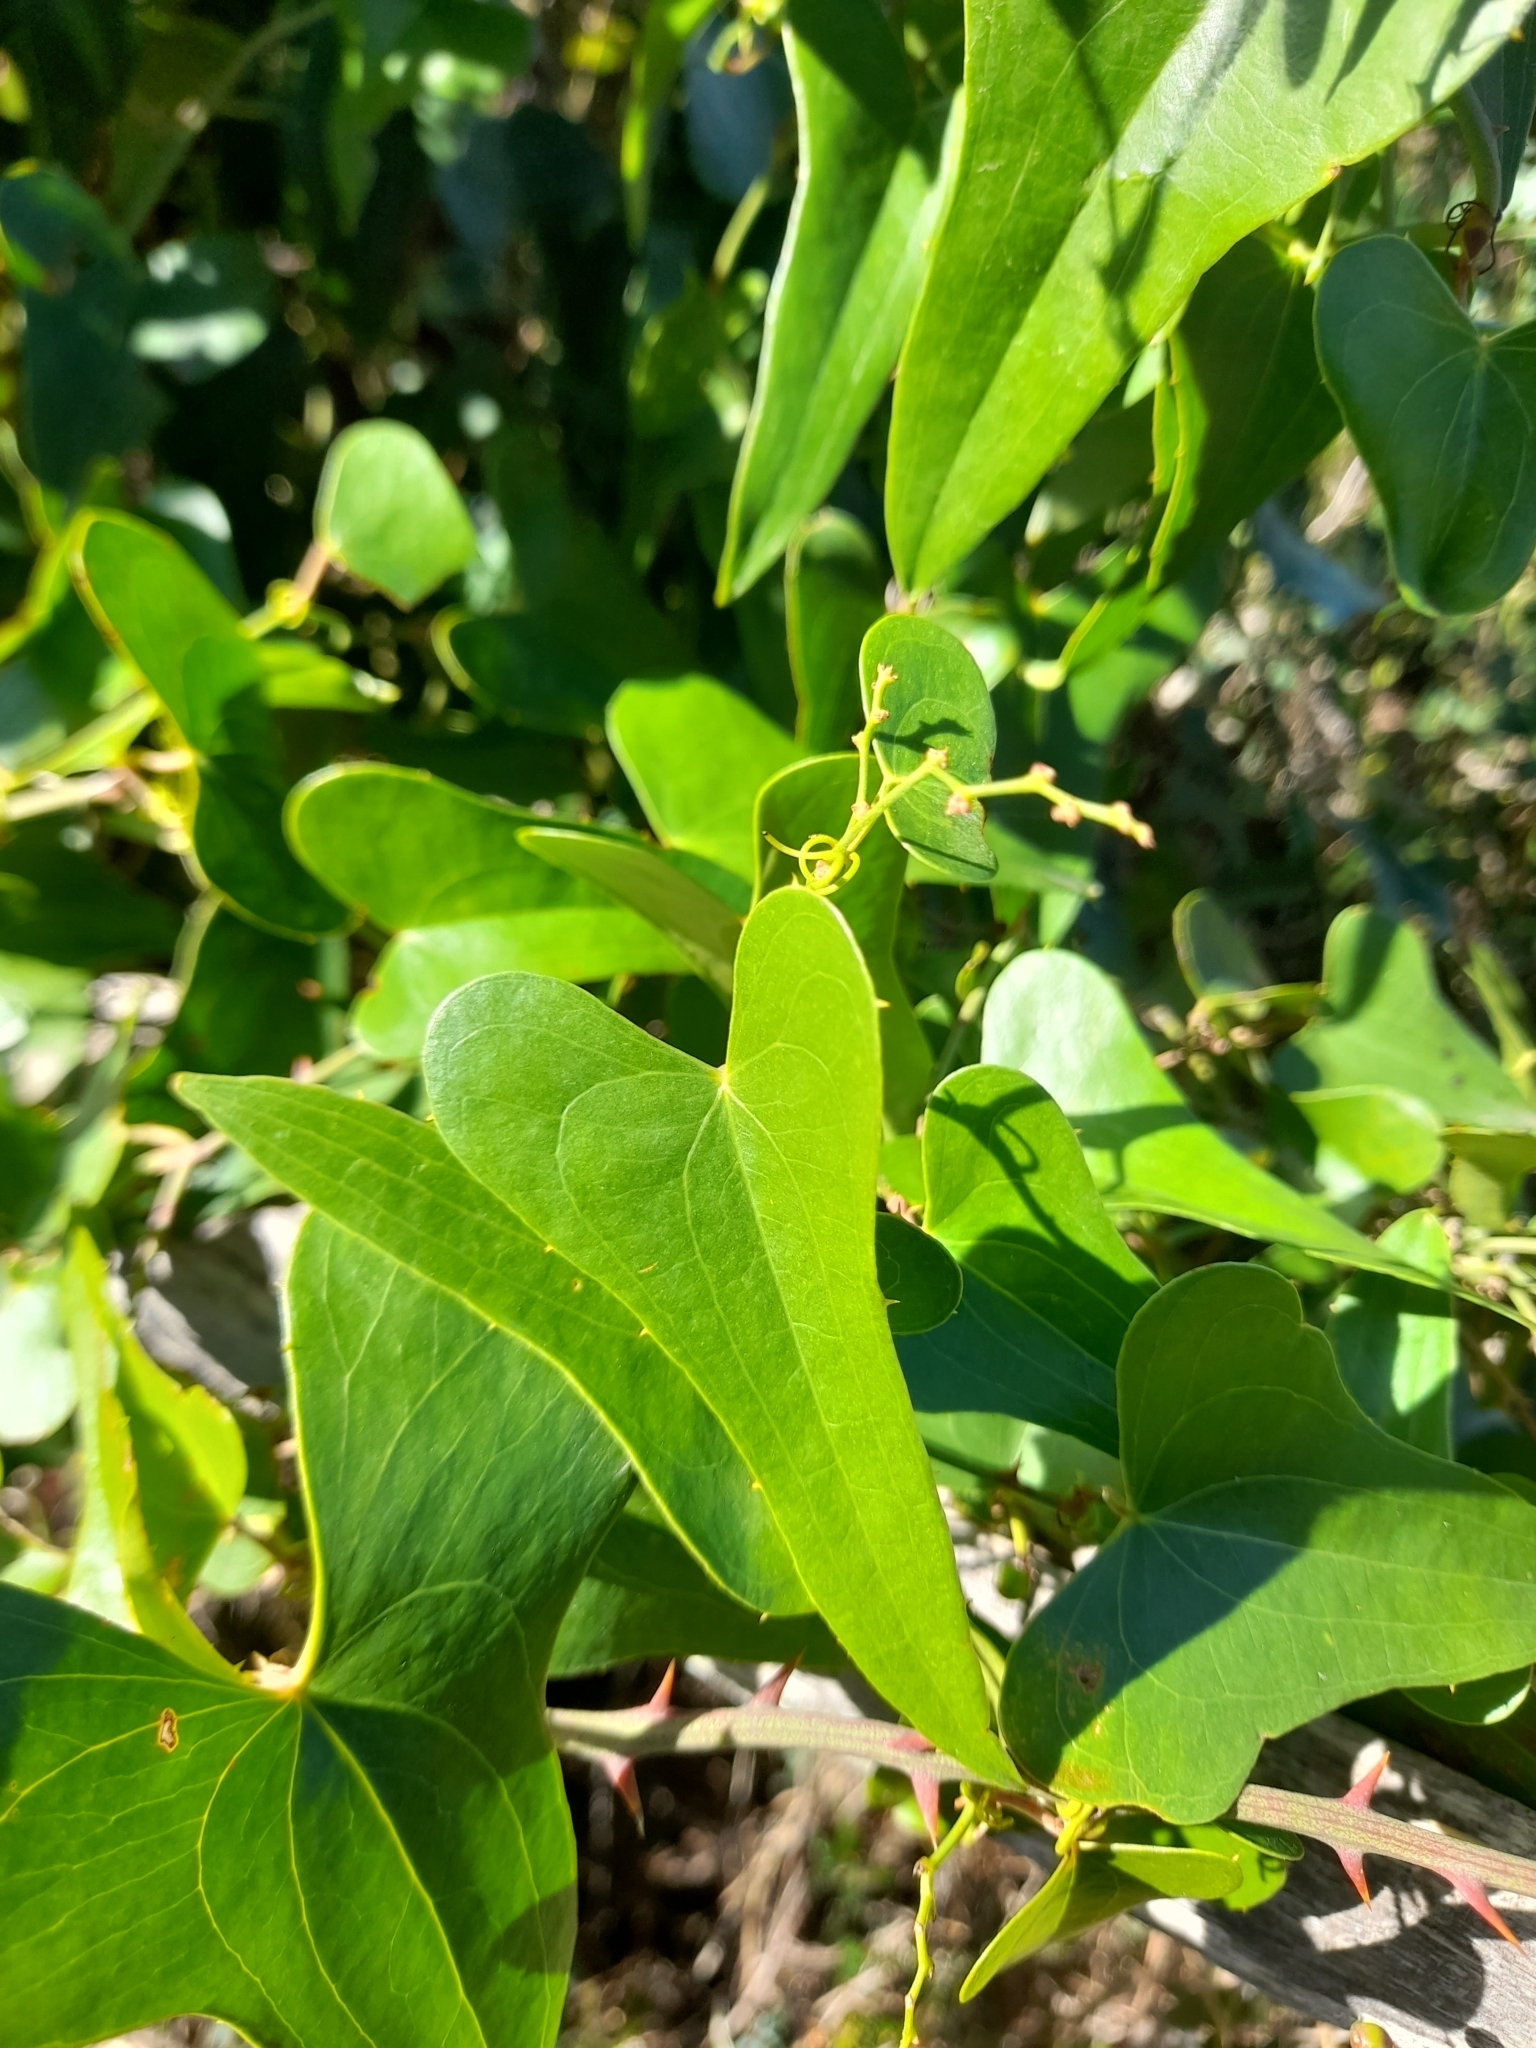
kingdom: Plantae
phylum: Tracheophyta
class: Liliopsida
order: Liliales
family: Smilacaceae
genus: Smilax
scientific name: Smilax aspera
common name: Common smilax
